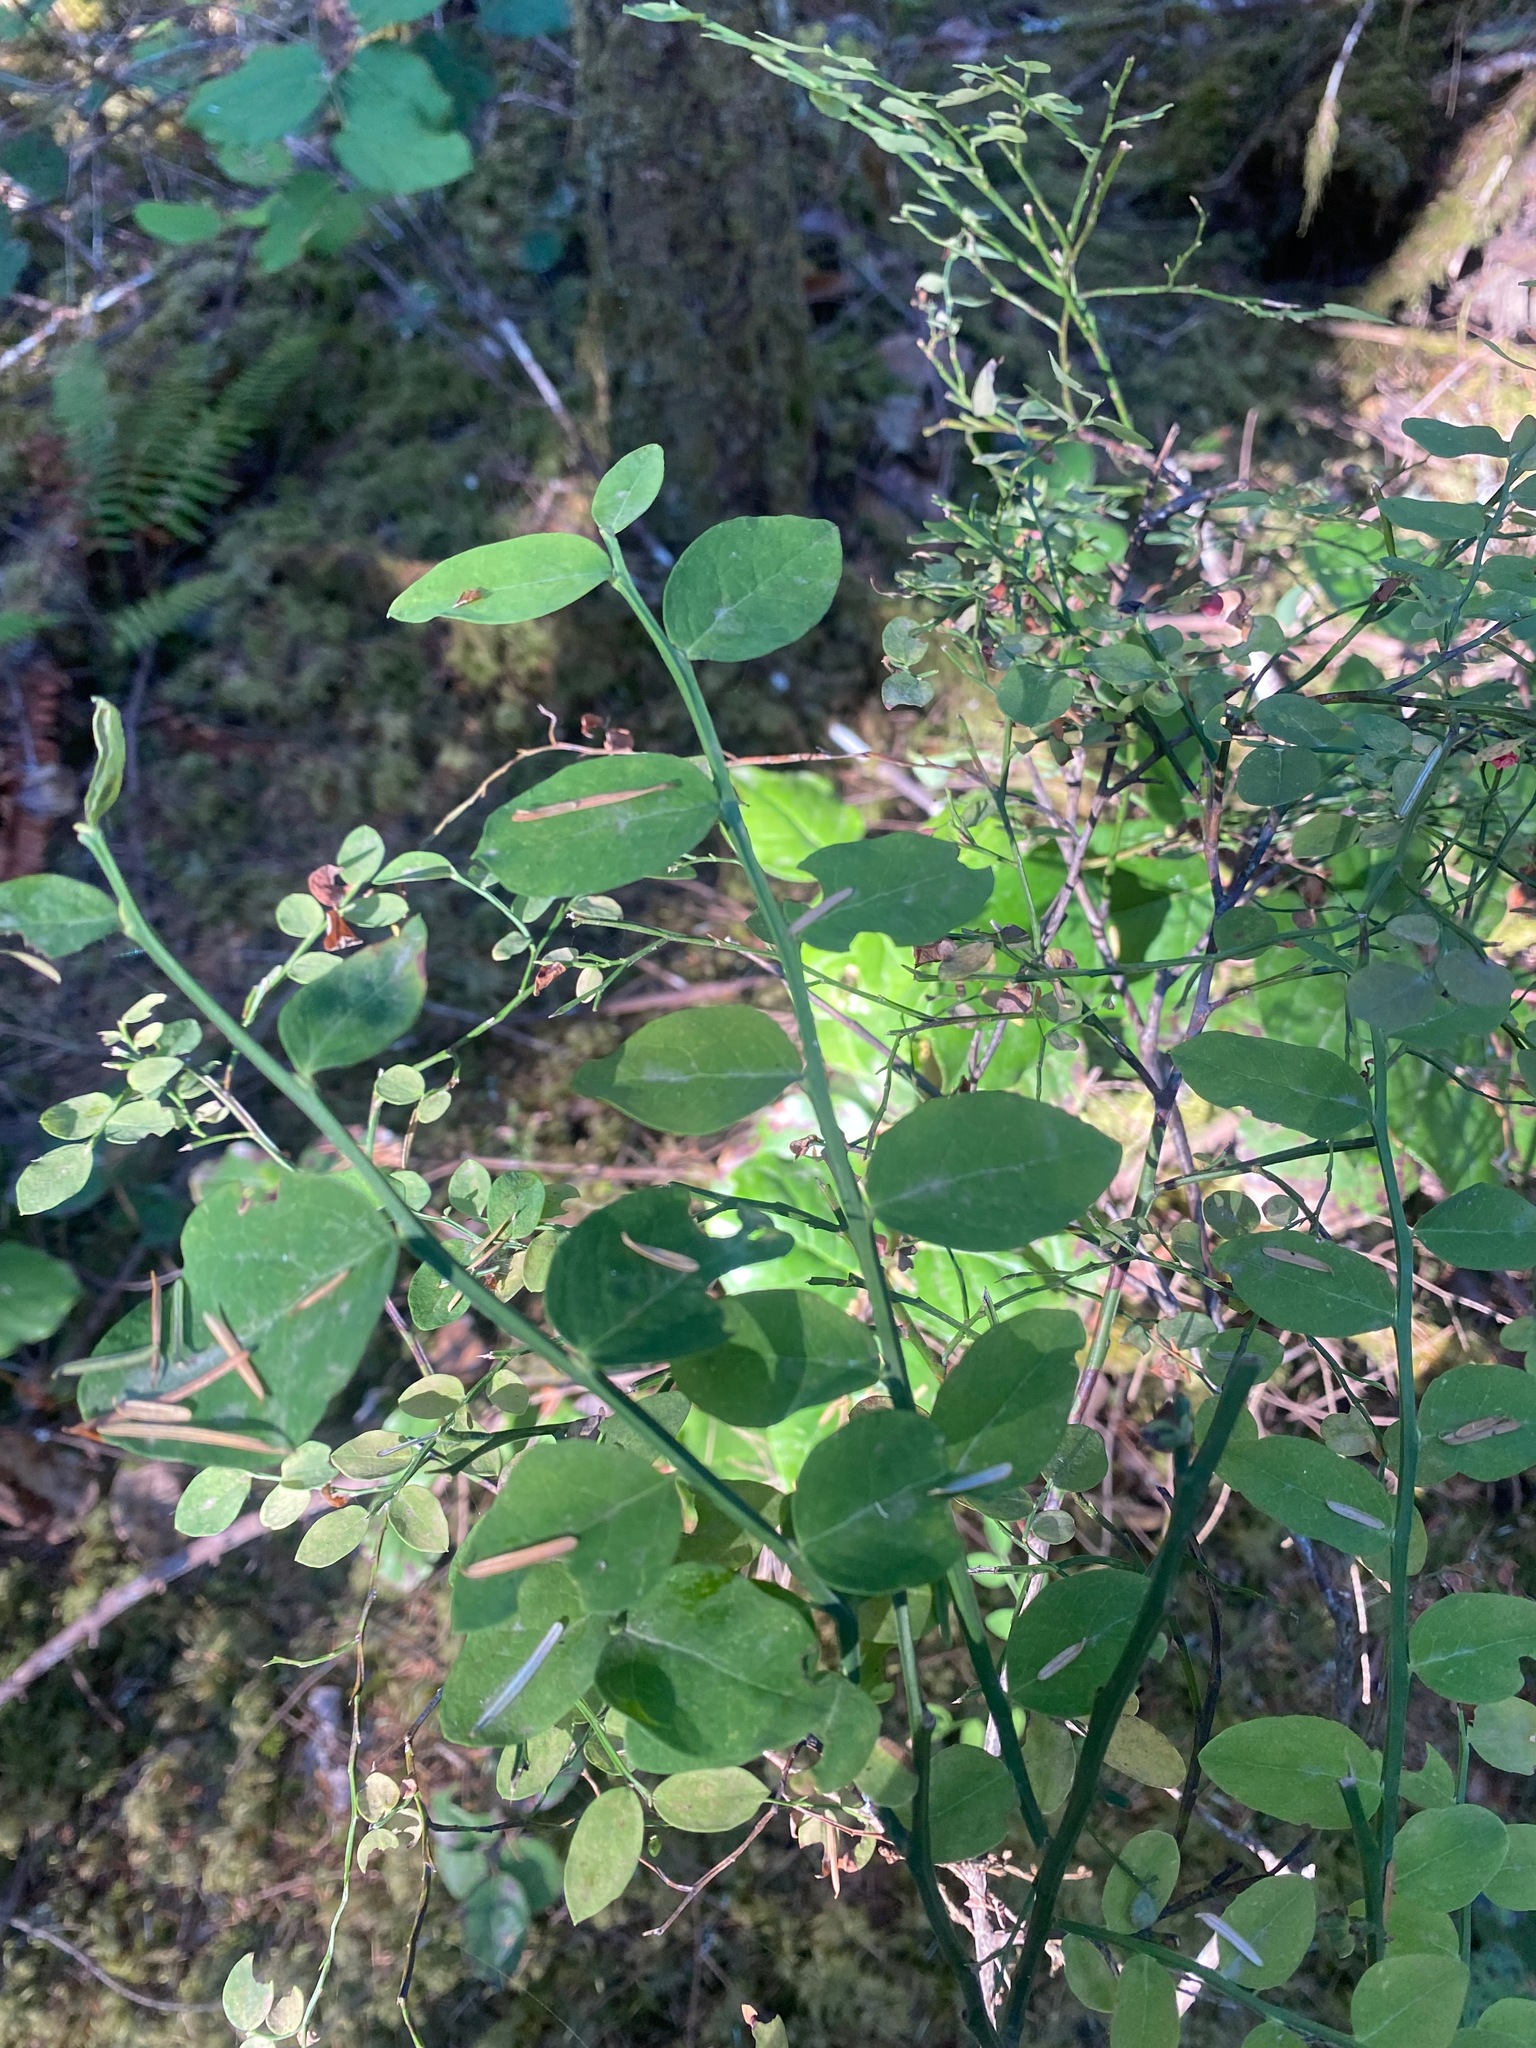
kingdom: Plantae
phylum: Tracheophyta
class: Magnoliopsida
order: Ericales
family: Ericaceae
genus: Vaccinium
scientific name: Vaccinium parvifolium
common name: Red-huckleberry
